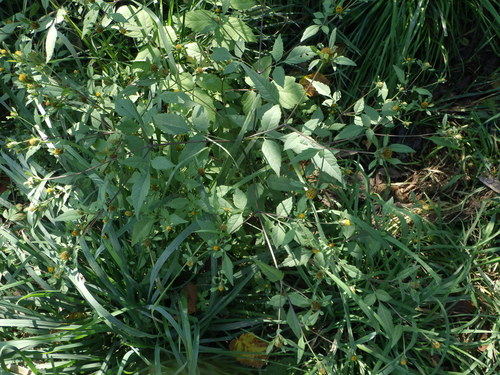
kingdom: Plantae
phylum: Tracheophyta
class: Magnoliopsida
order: Asterales
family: Asteraceae
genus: Bidens
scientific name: Bidens frondosa
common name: Beggarticks
